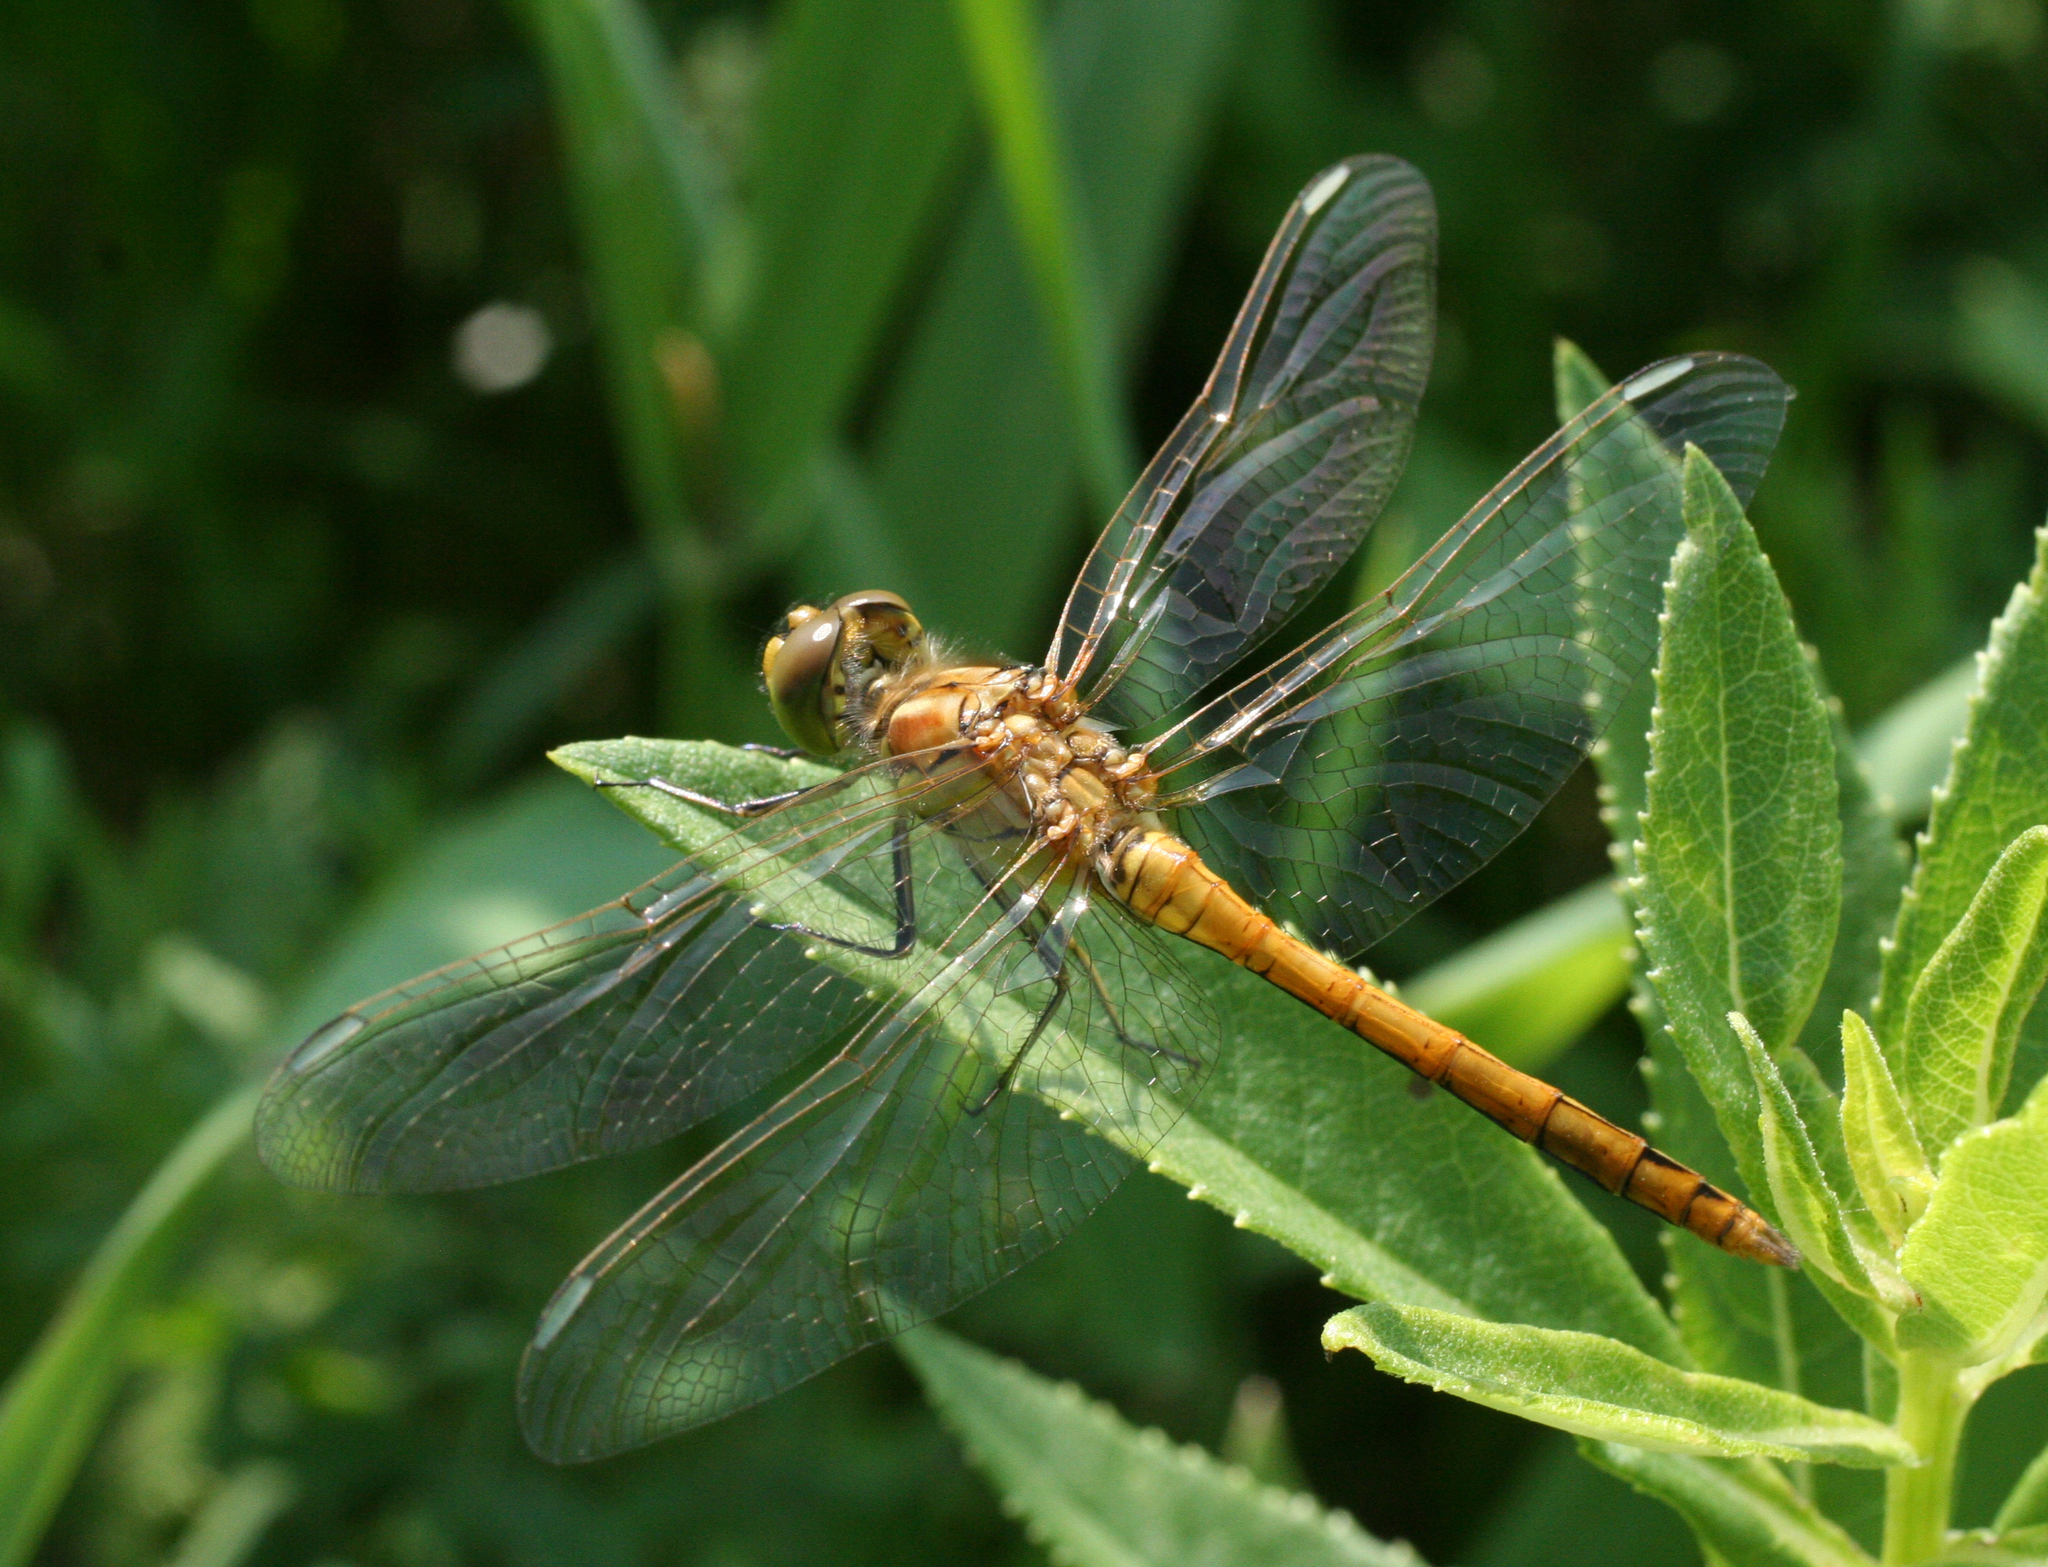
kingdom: Animalia
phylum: Arthropoda
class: Insecta
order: Odonata
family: Libellulidae
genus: Sympetrum
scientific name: Sympetrum vulgatum
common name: Vagrant darter
